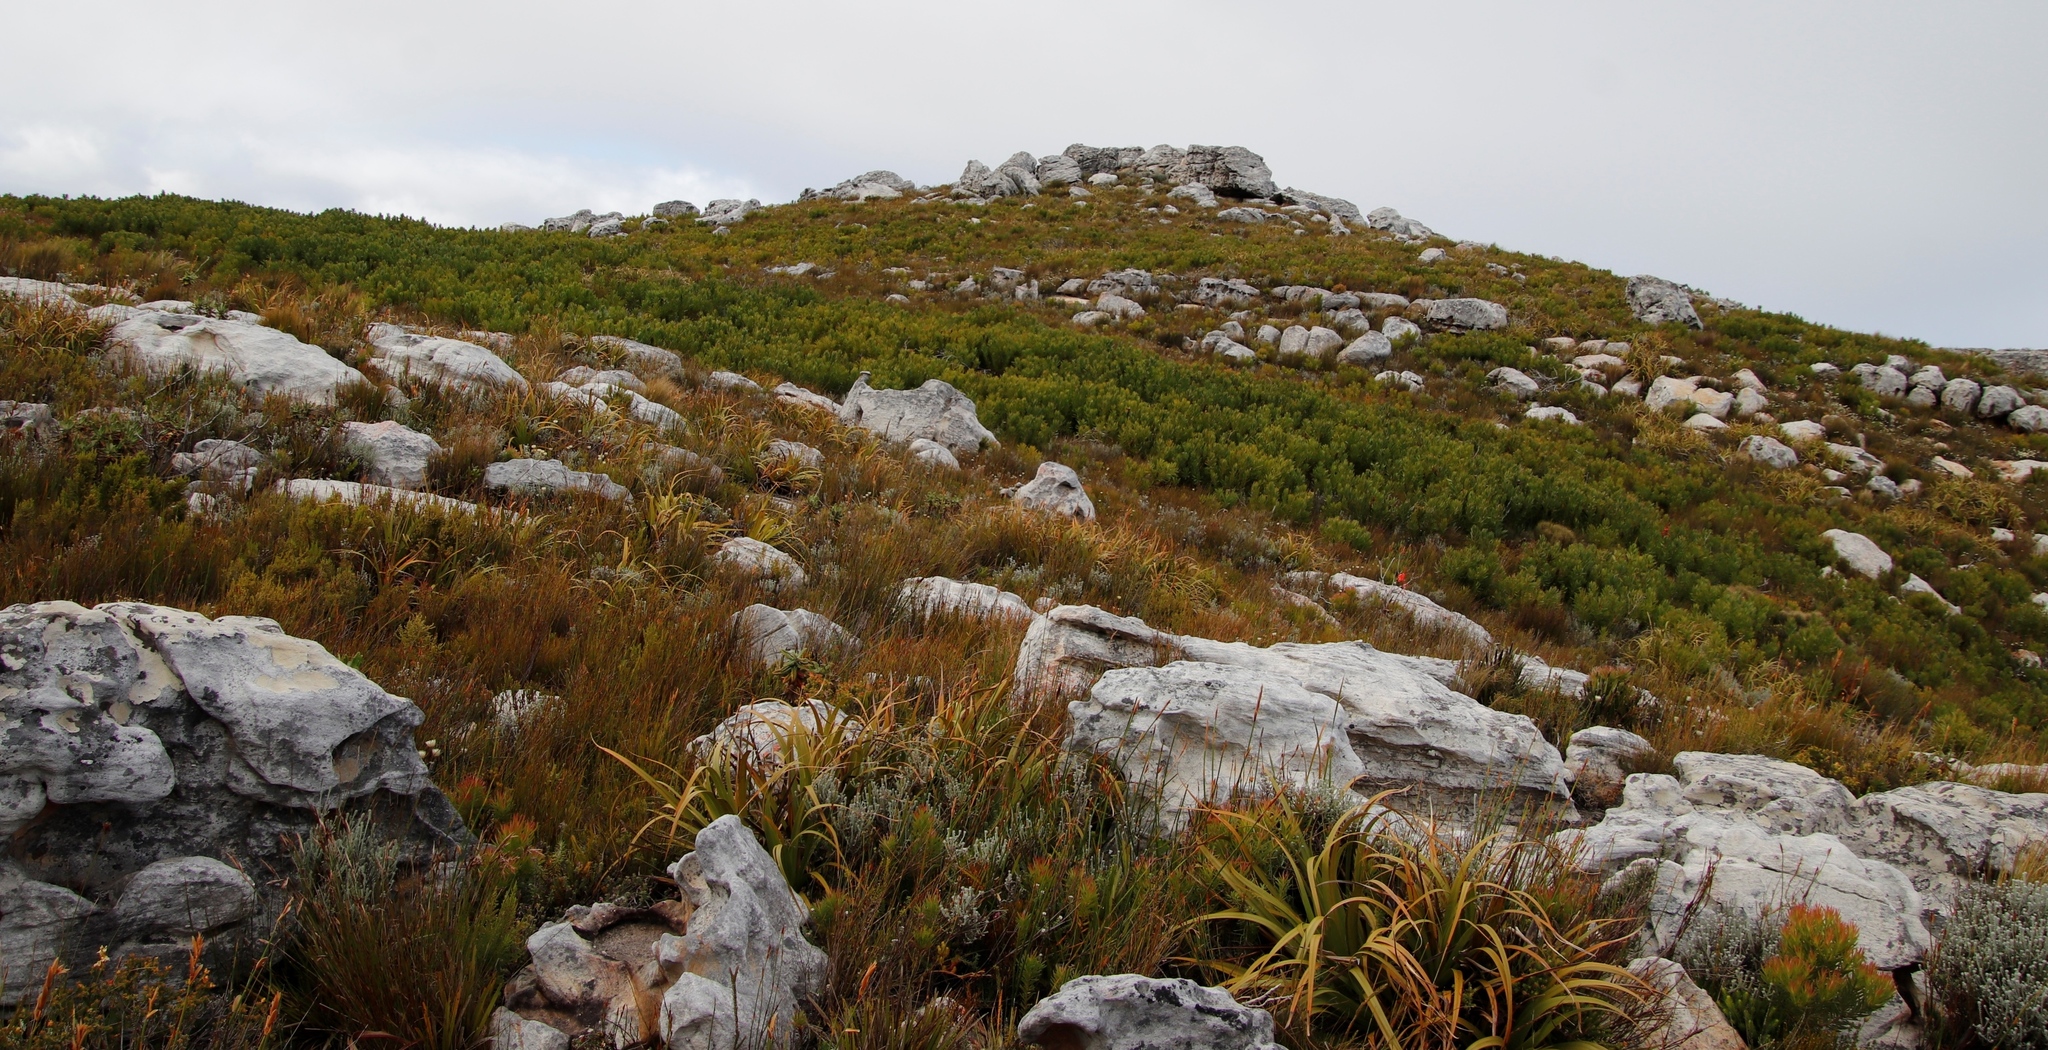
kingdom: Plantae
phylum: Tracheophyta
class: Magnoliopsida
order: Proteales
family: Proteaceae
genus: Protea
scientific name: Protea lepidocarpodendron
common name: Black-bearded protea
